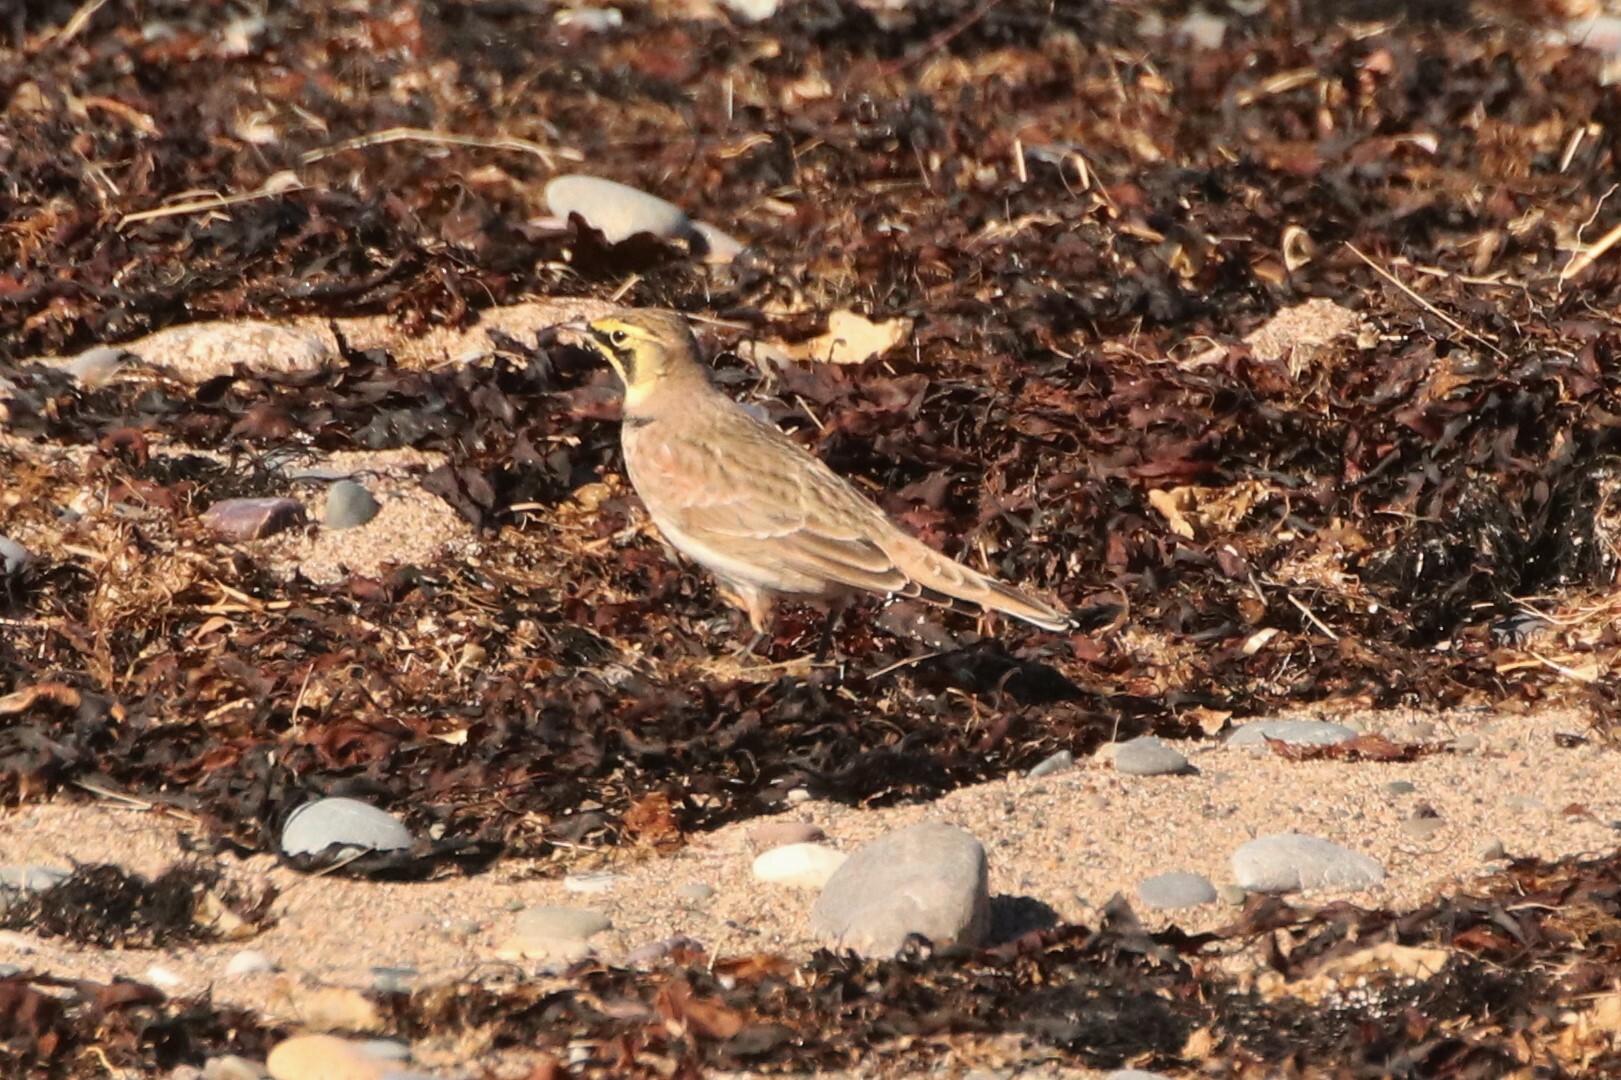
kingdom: Animalia
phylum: Chordata
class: Aves
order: Passeriformes
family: Alaudidae
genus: Eremophila
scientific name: Eremophila alpestris
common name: Horned lark
